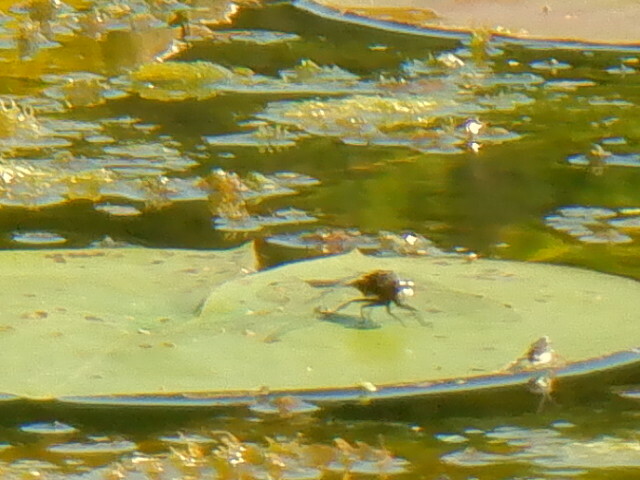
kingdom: Animalia
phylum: Arthropoda
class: Insecta
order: Odonata
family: Libellulidae
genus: Leucorrhinia
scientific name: Leucorrhinia intacta
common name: Dot-tailed whiteface
